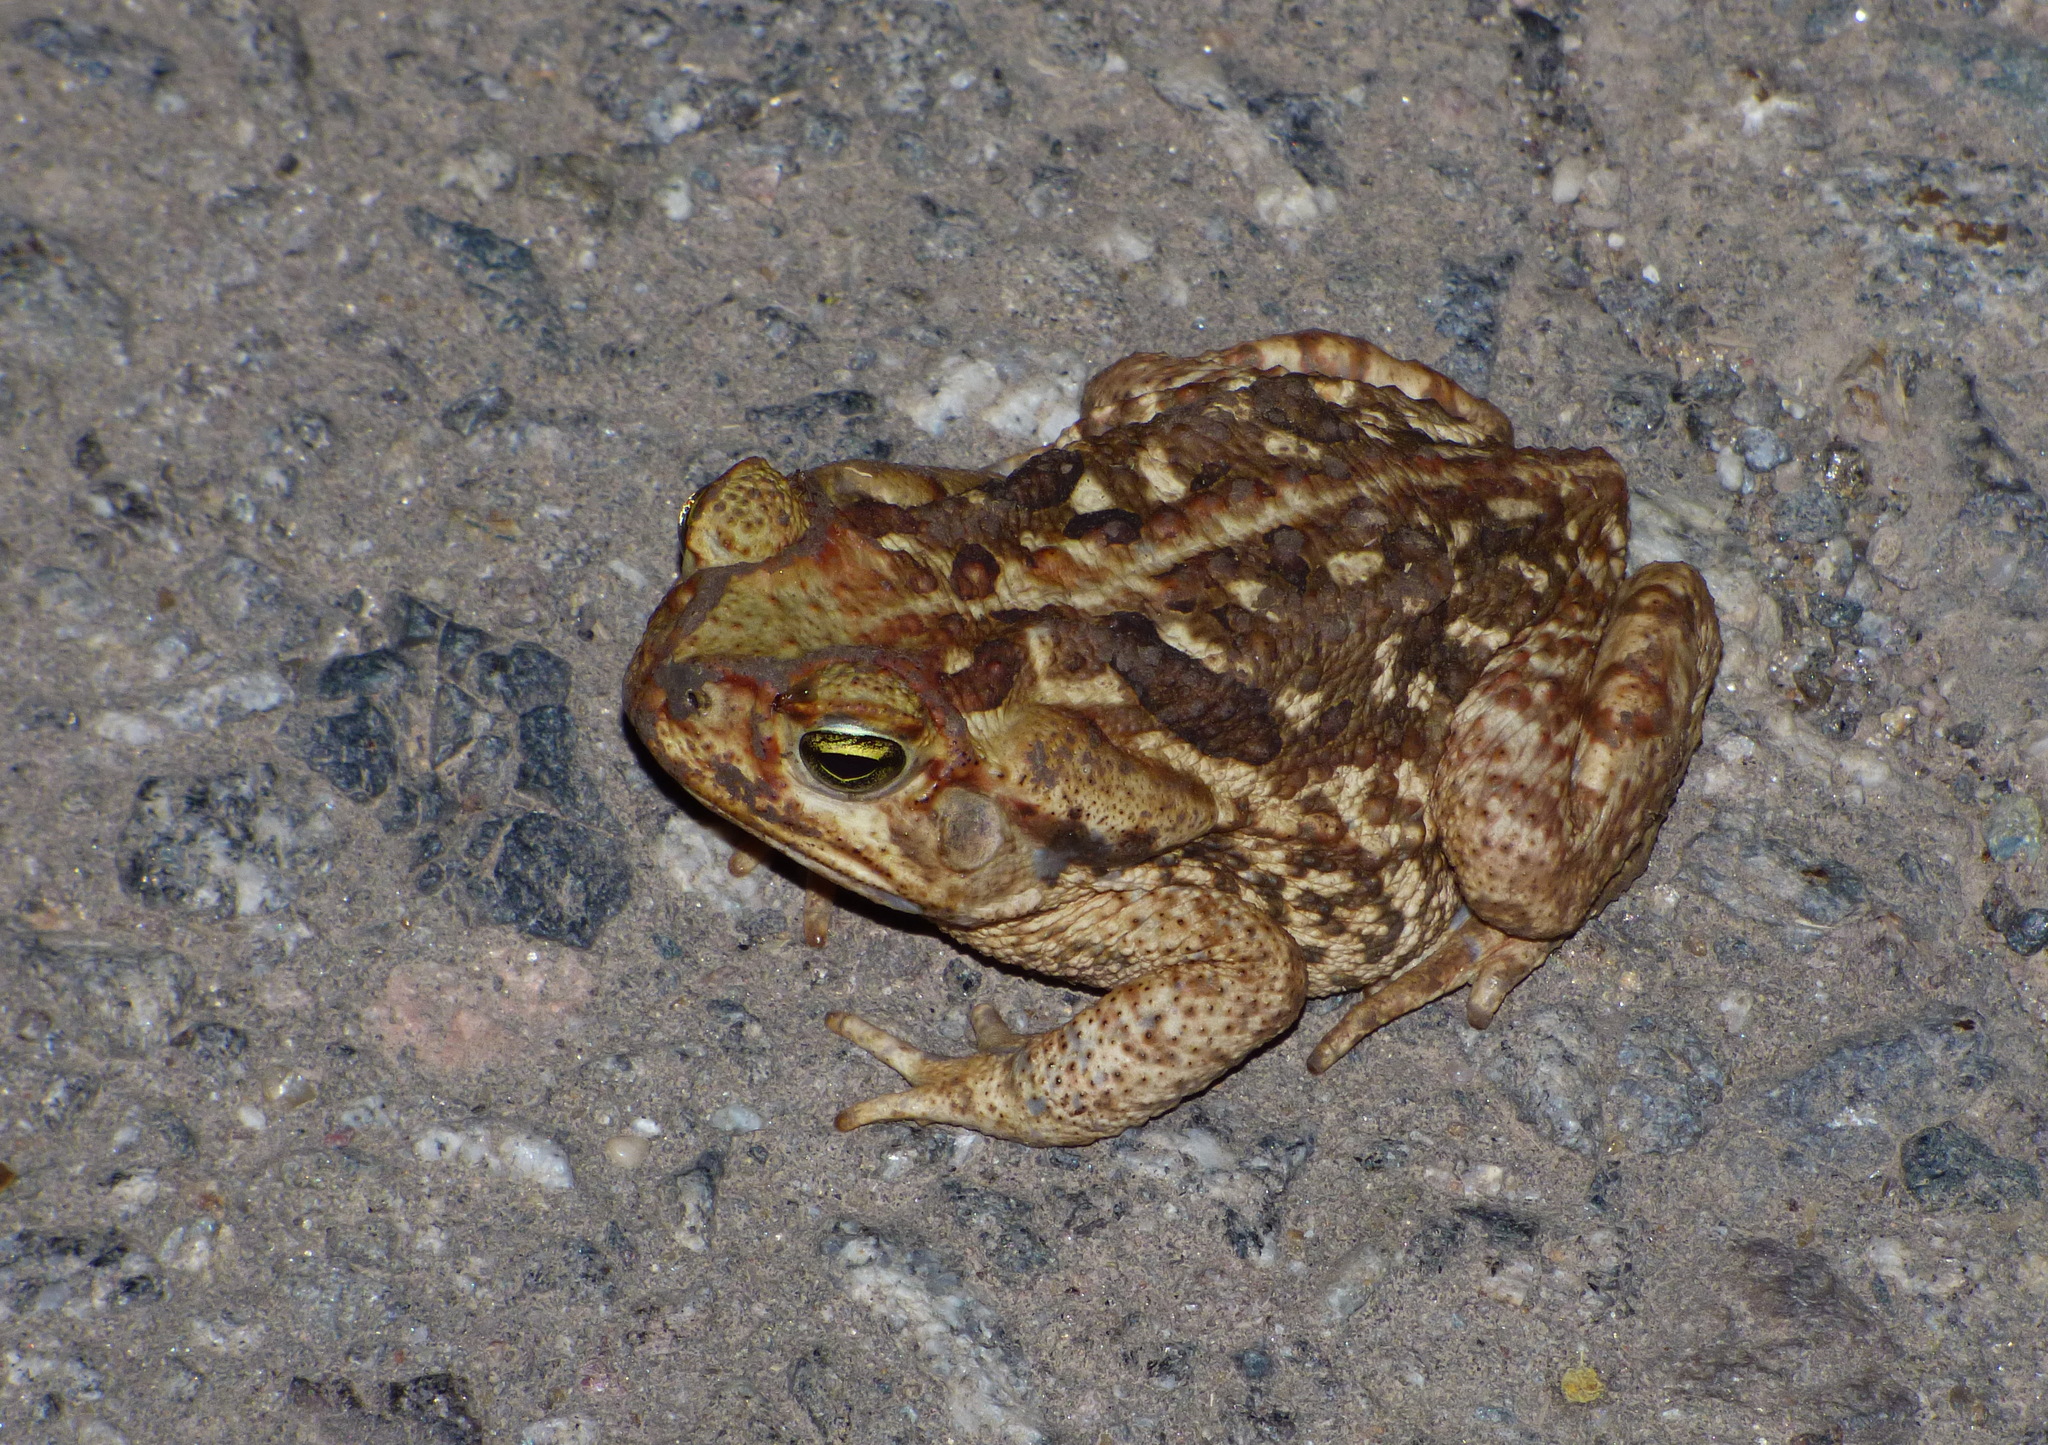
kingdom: Animalia
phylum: Chordata
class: Amphibia
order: Anura
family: Bufonidae
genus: Rhinella
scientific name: Rhinella diptycha
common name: Cope's toad
